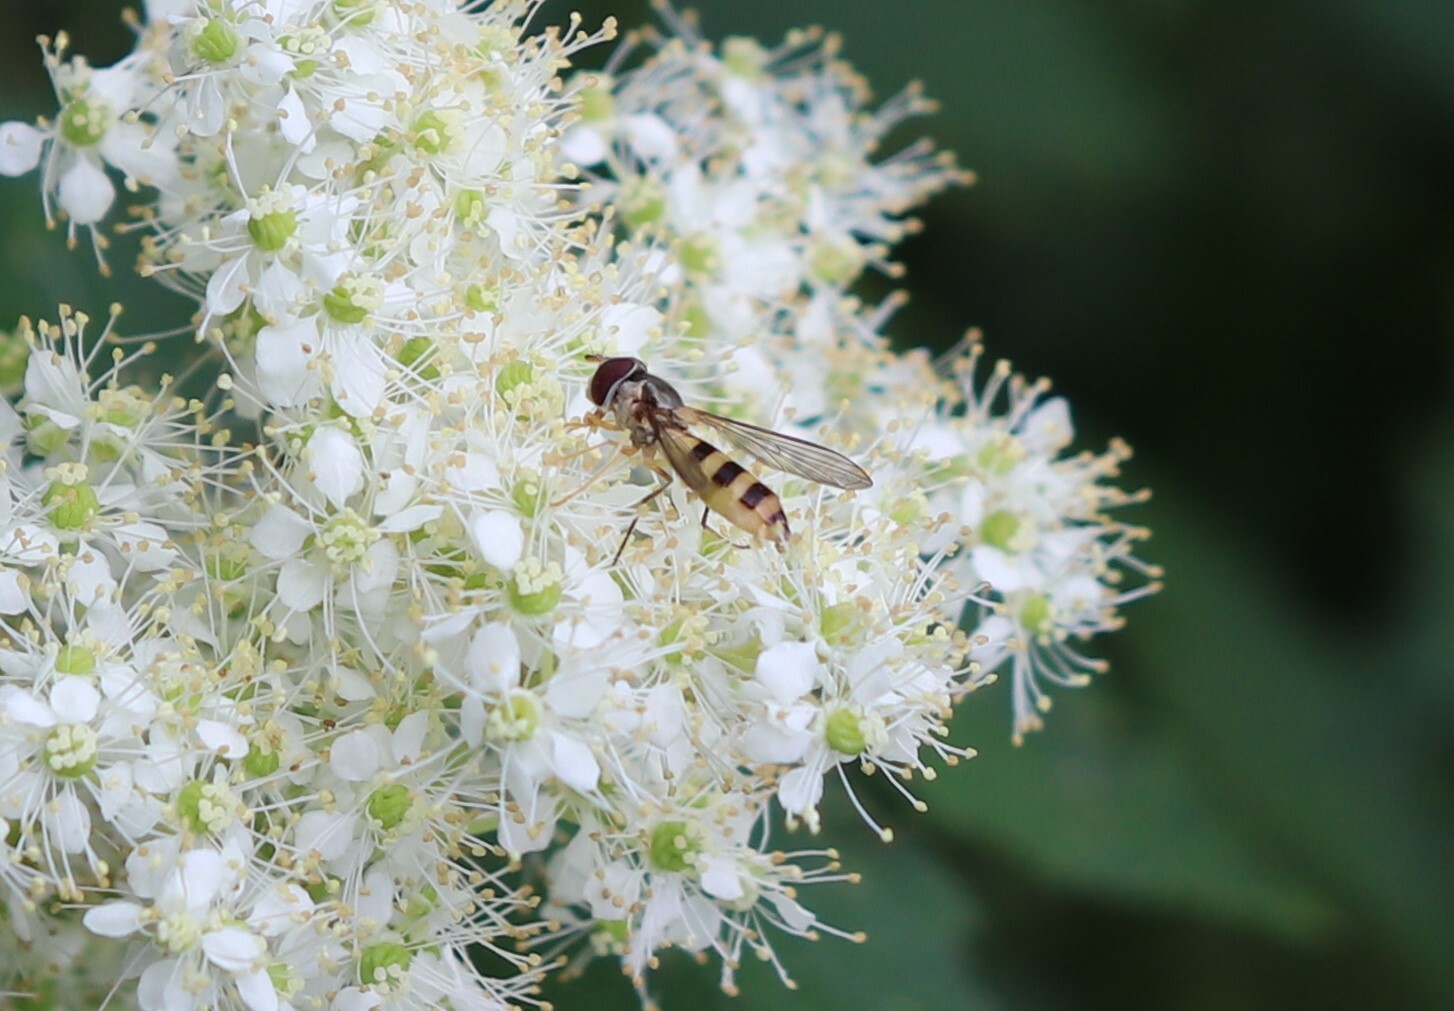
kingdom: Animalia
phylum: Arthropoda
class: Insecta
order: Diptera
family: Syrphidae
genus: Meliscaeva
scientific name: Meliscaeva cinctella
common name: American thintail fly
